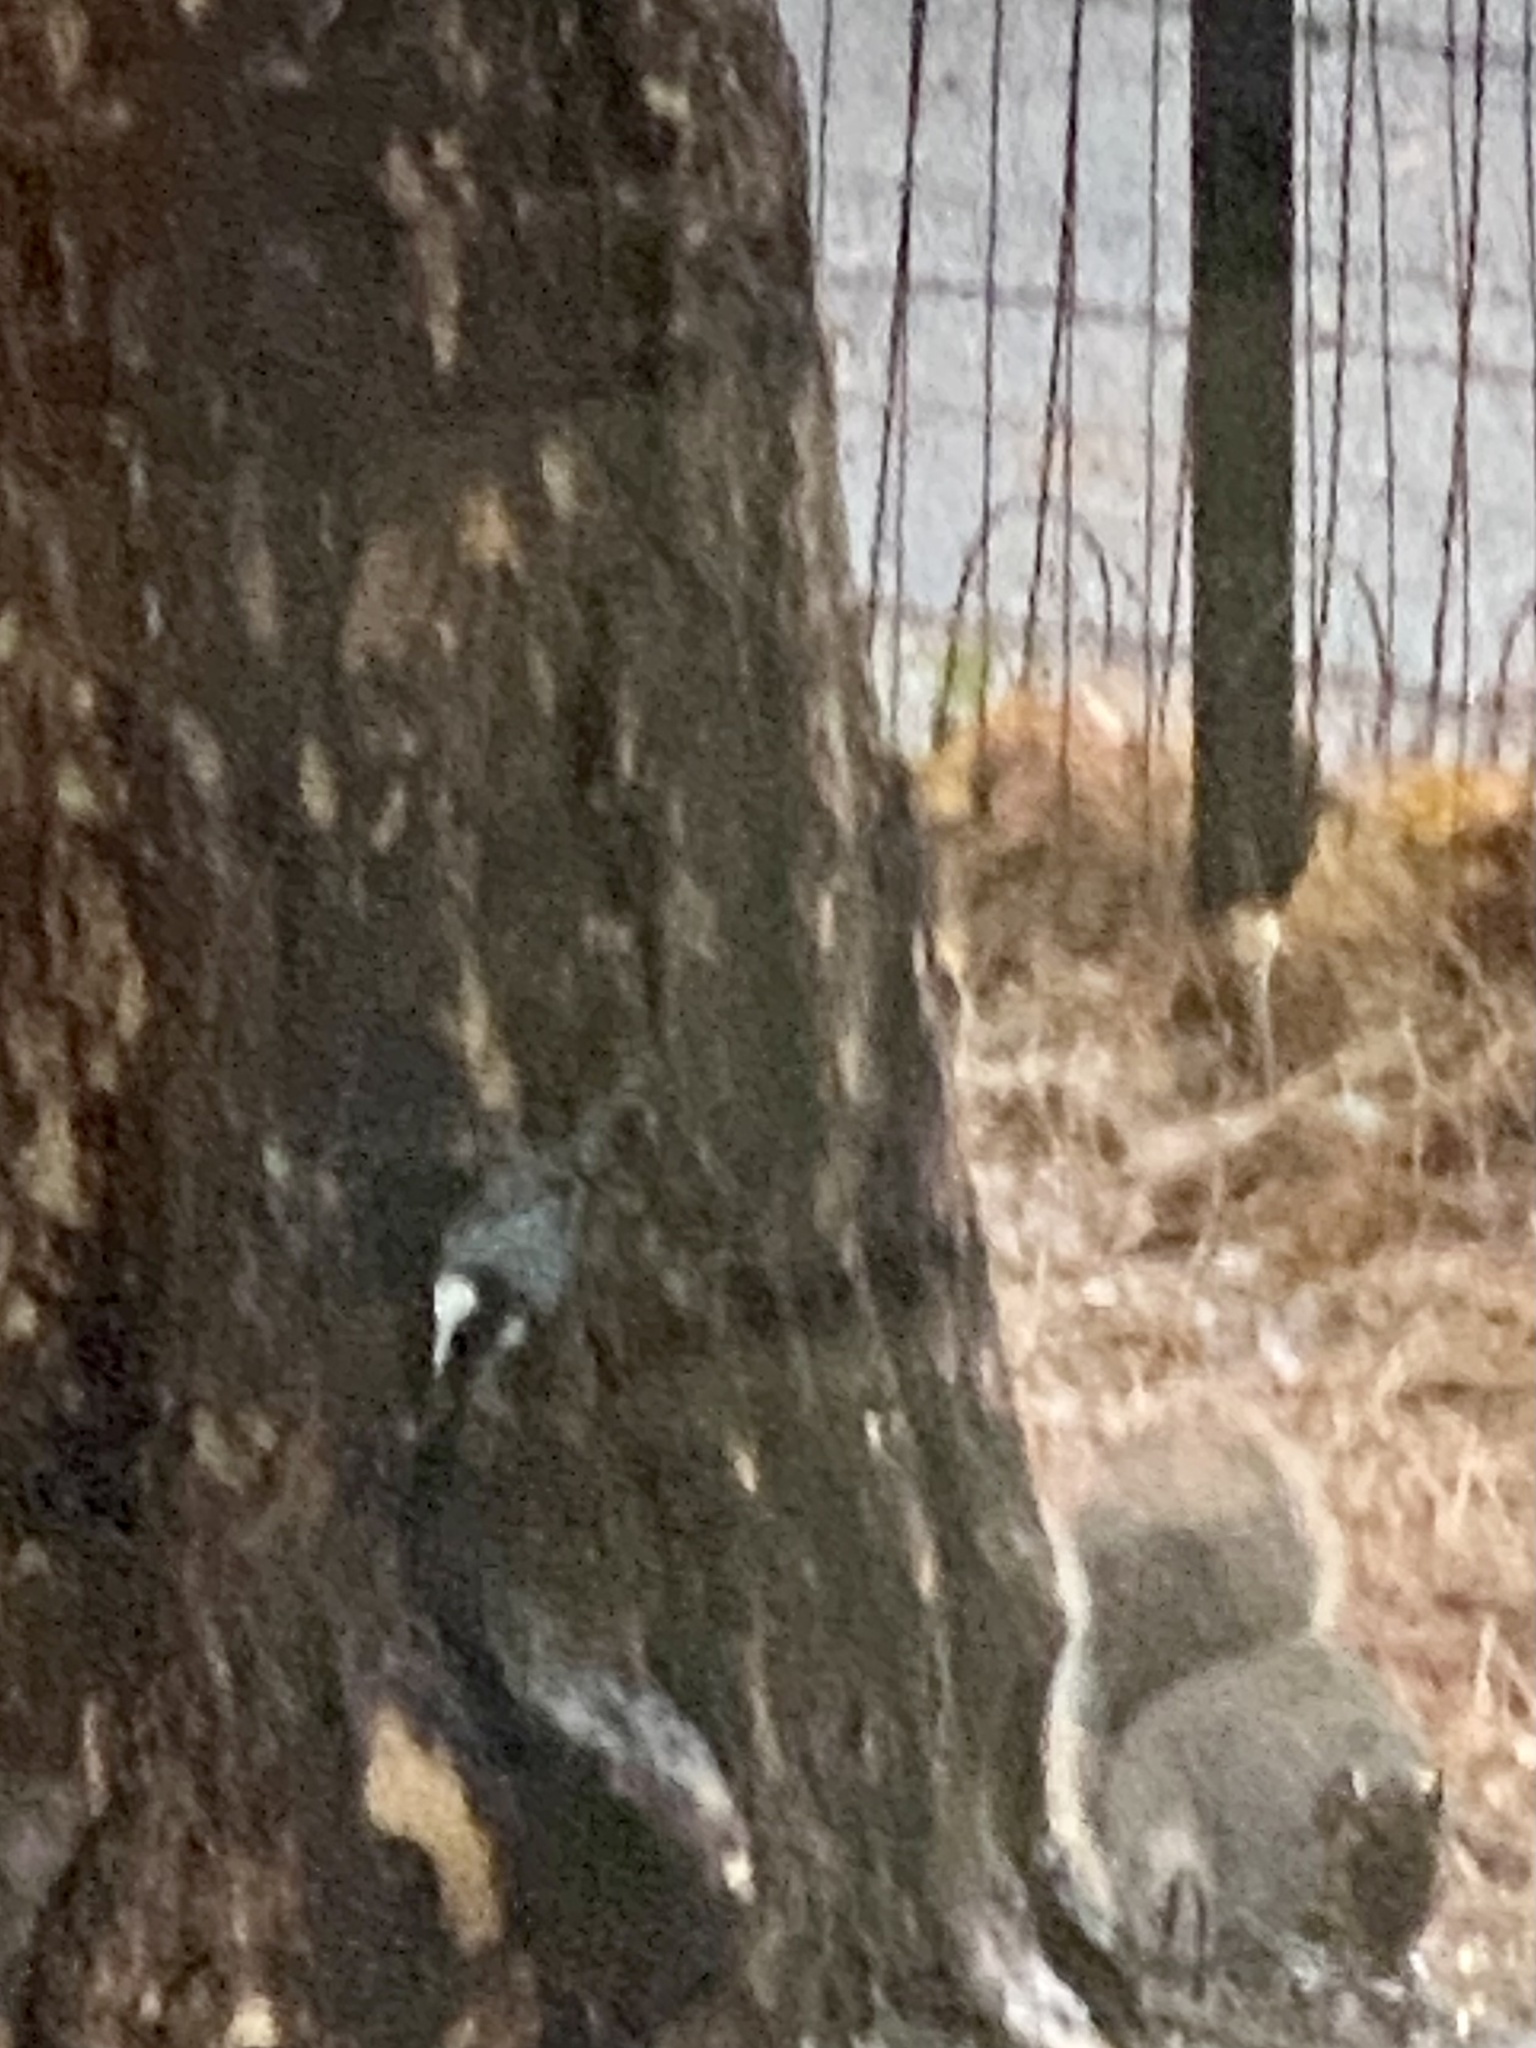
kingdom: Animalia
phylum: Chordata
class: Aves
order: Passeriformes
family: Sittidae
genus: Sitta
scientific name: Sitta carolinensis
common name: White-breasted nuthatch
